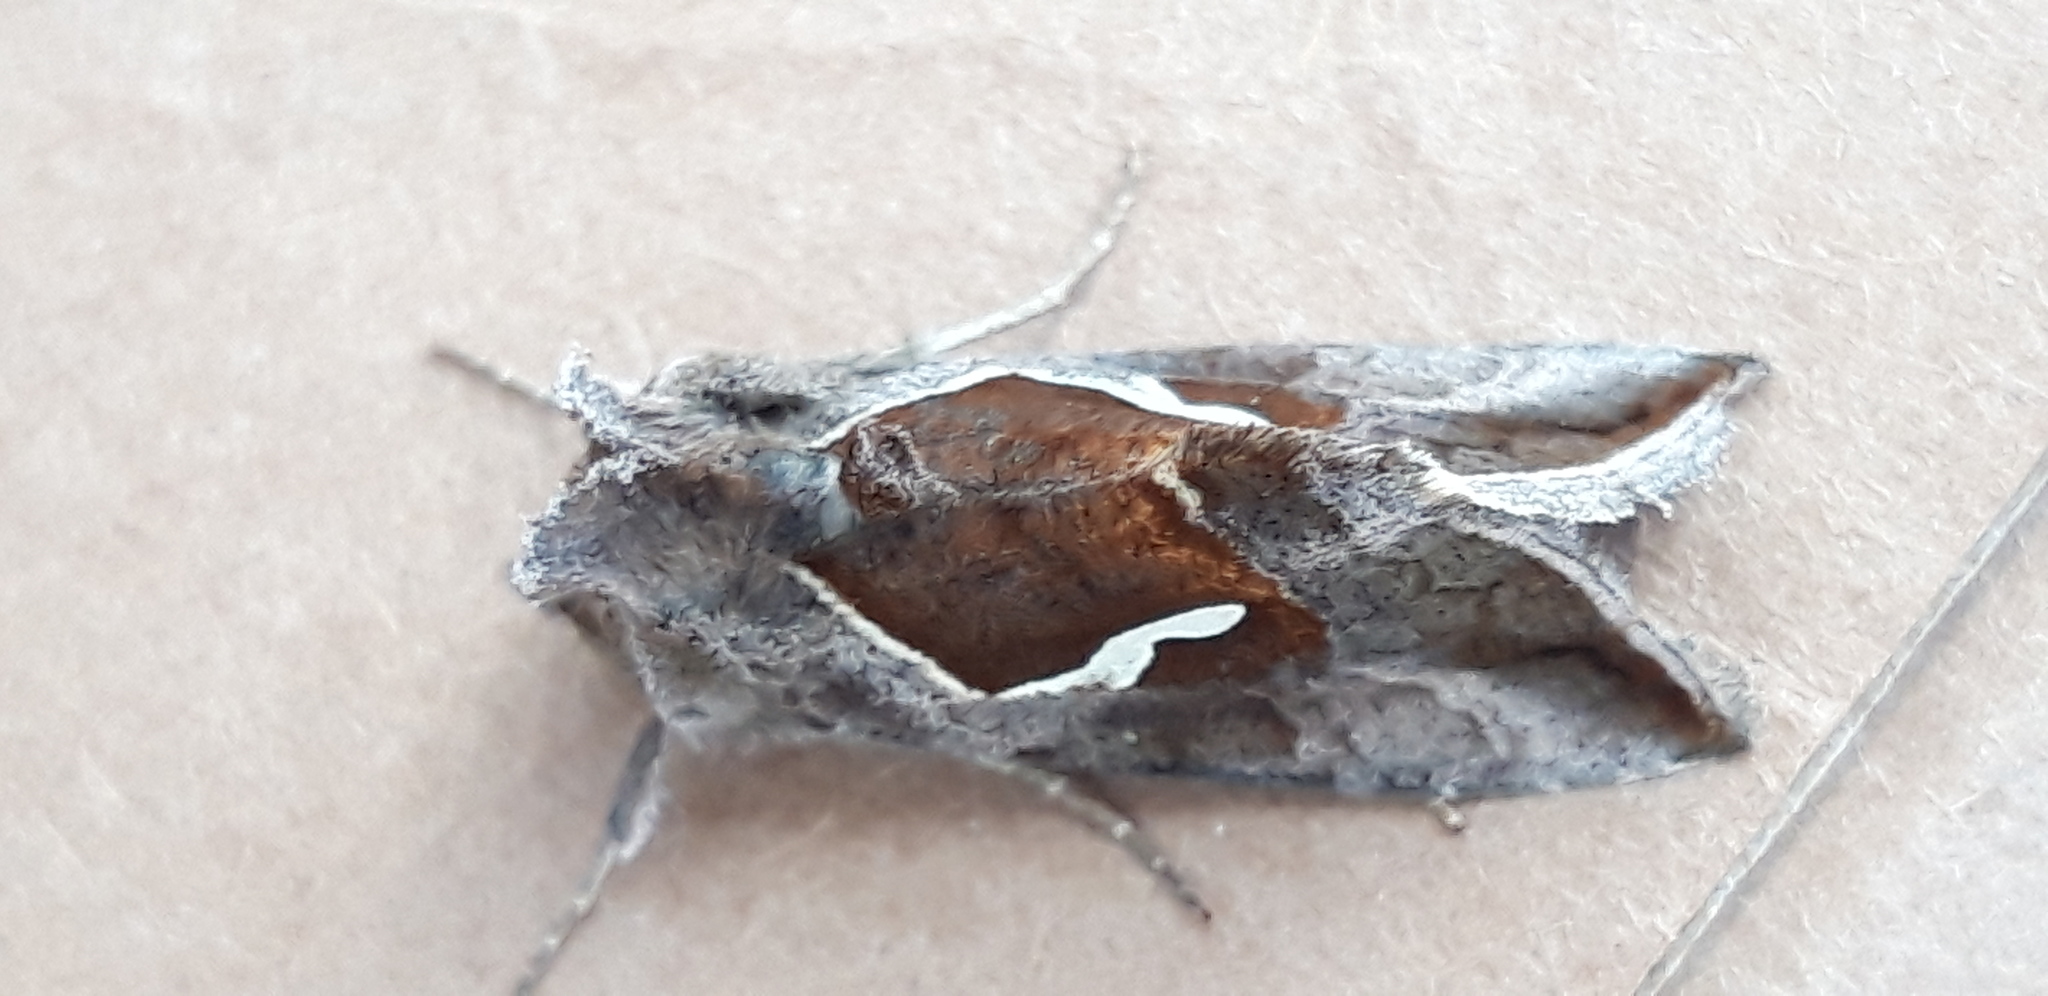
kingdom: Animalia
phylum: Arthropoda
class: Insecta
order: Lepidoptera
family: Noctuidae
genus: Macdunnoughia
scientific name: Macdunnoughia confusa
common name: Dewick's plusia
